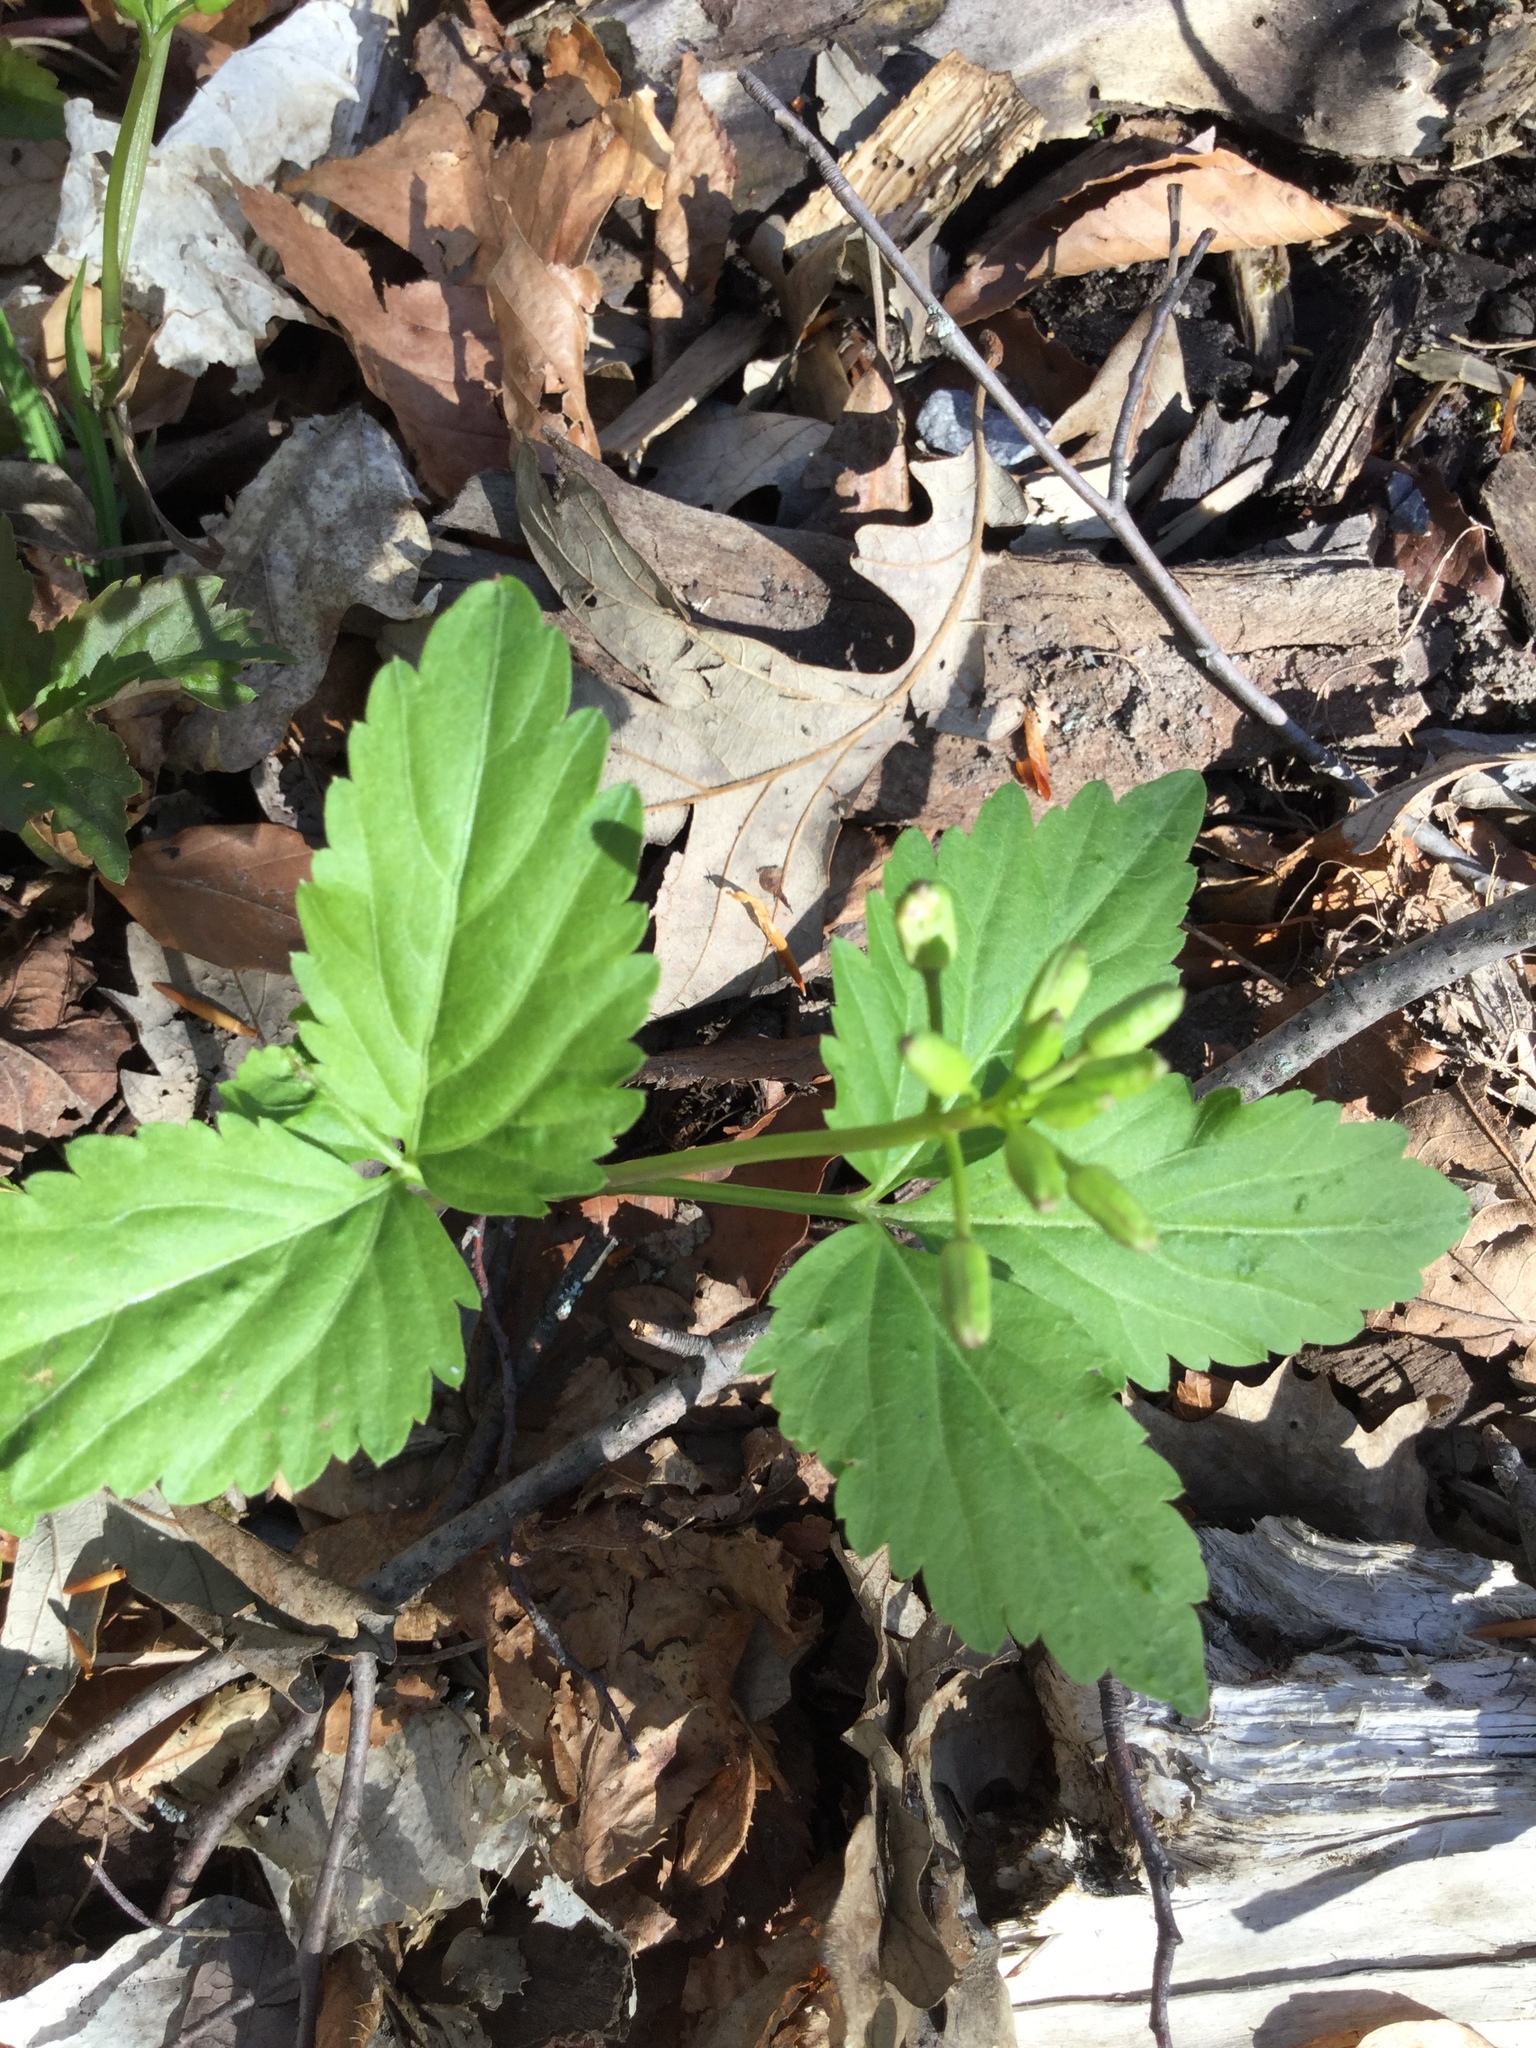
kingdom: Plantae
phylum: Tracheophyta
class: Magnoliopsida
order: Brassicales
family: Brassicaceae
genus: Cardamine
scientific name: Cardamine diphylla
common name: Broad-leaved toothwort
